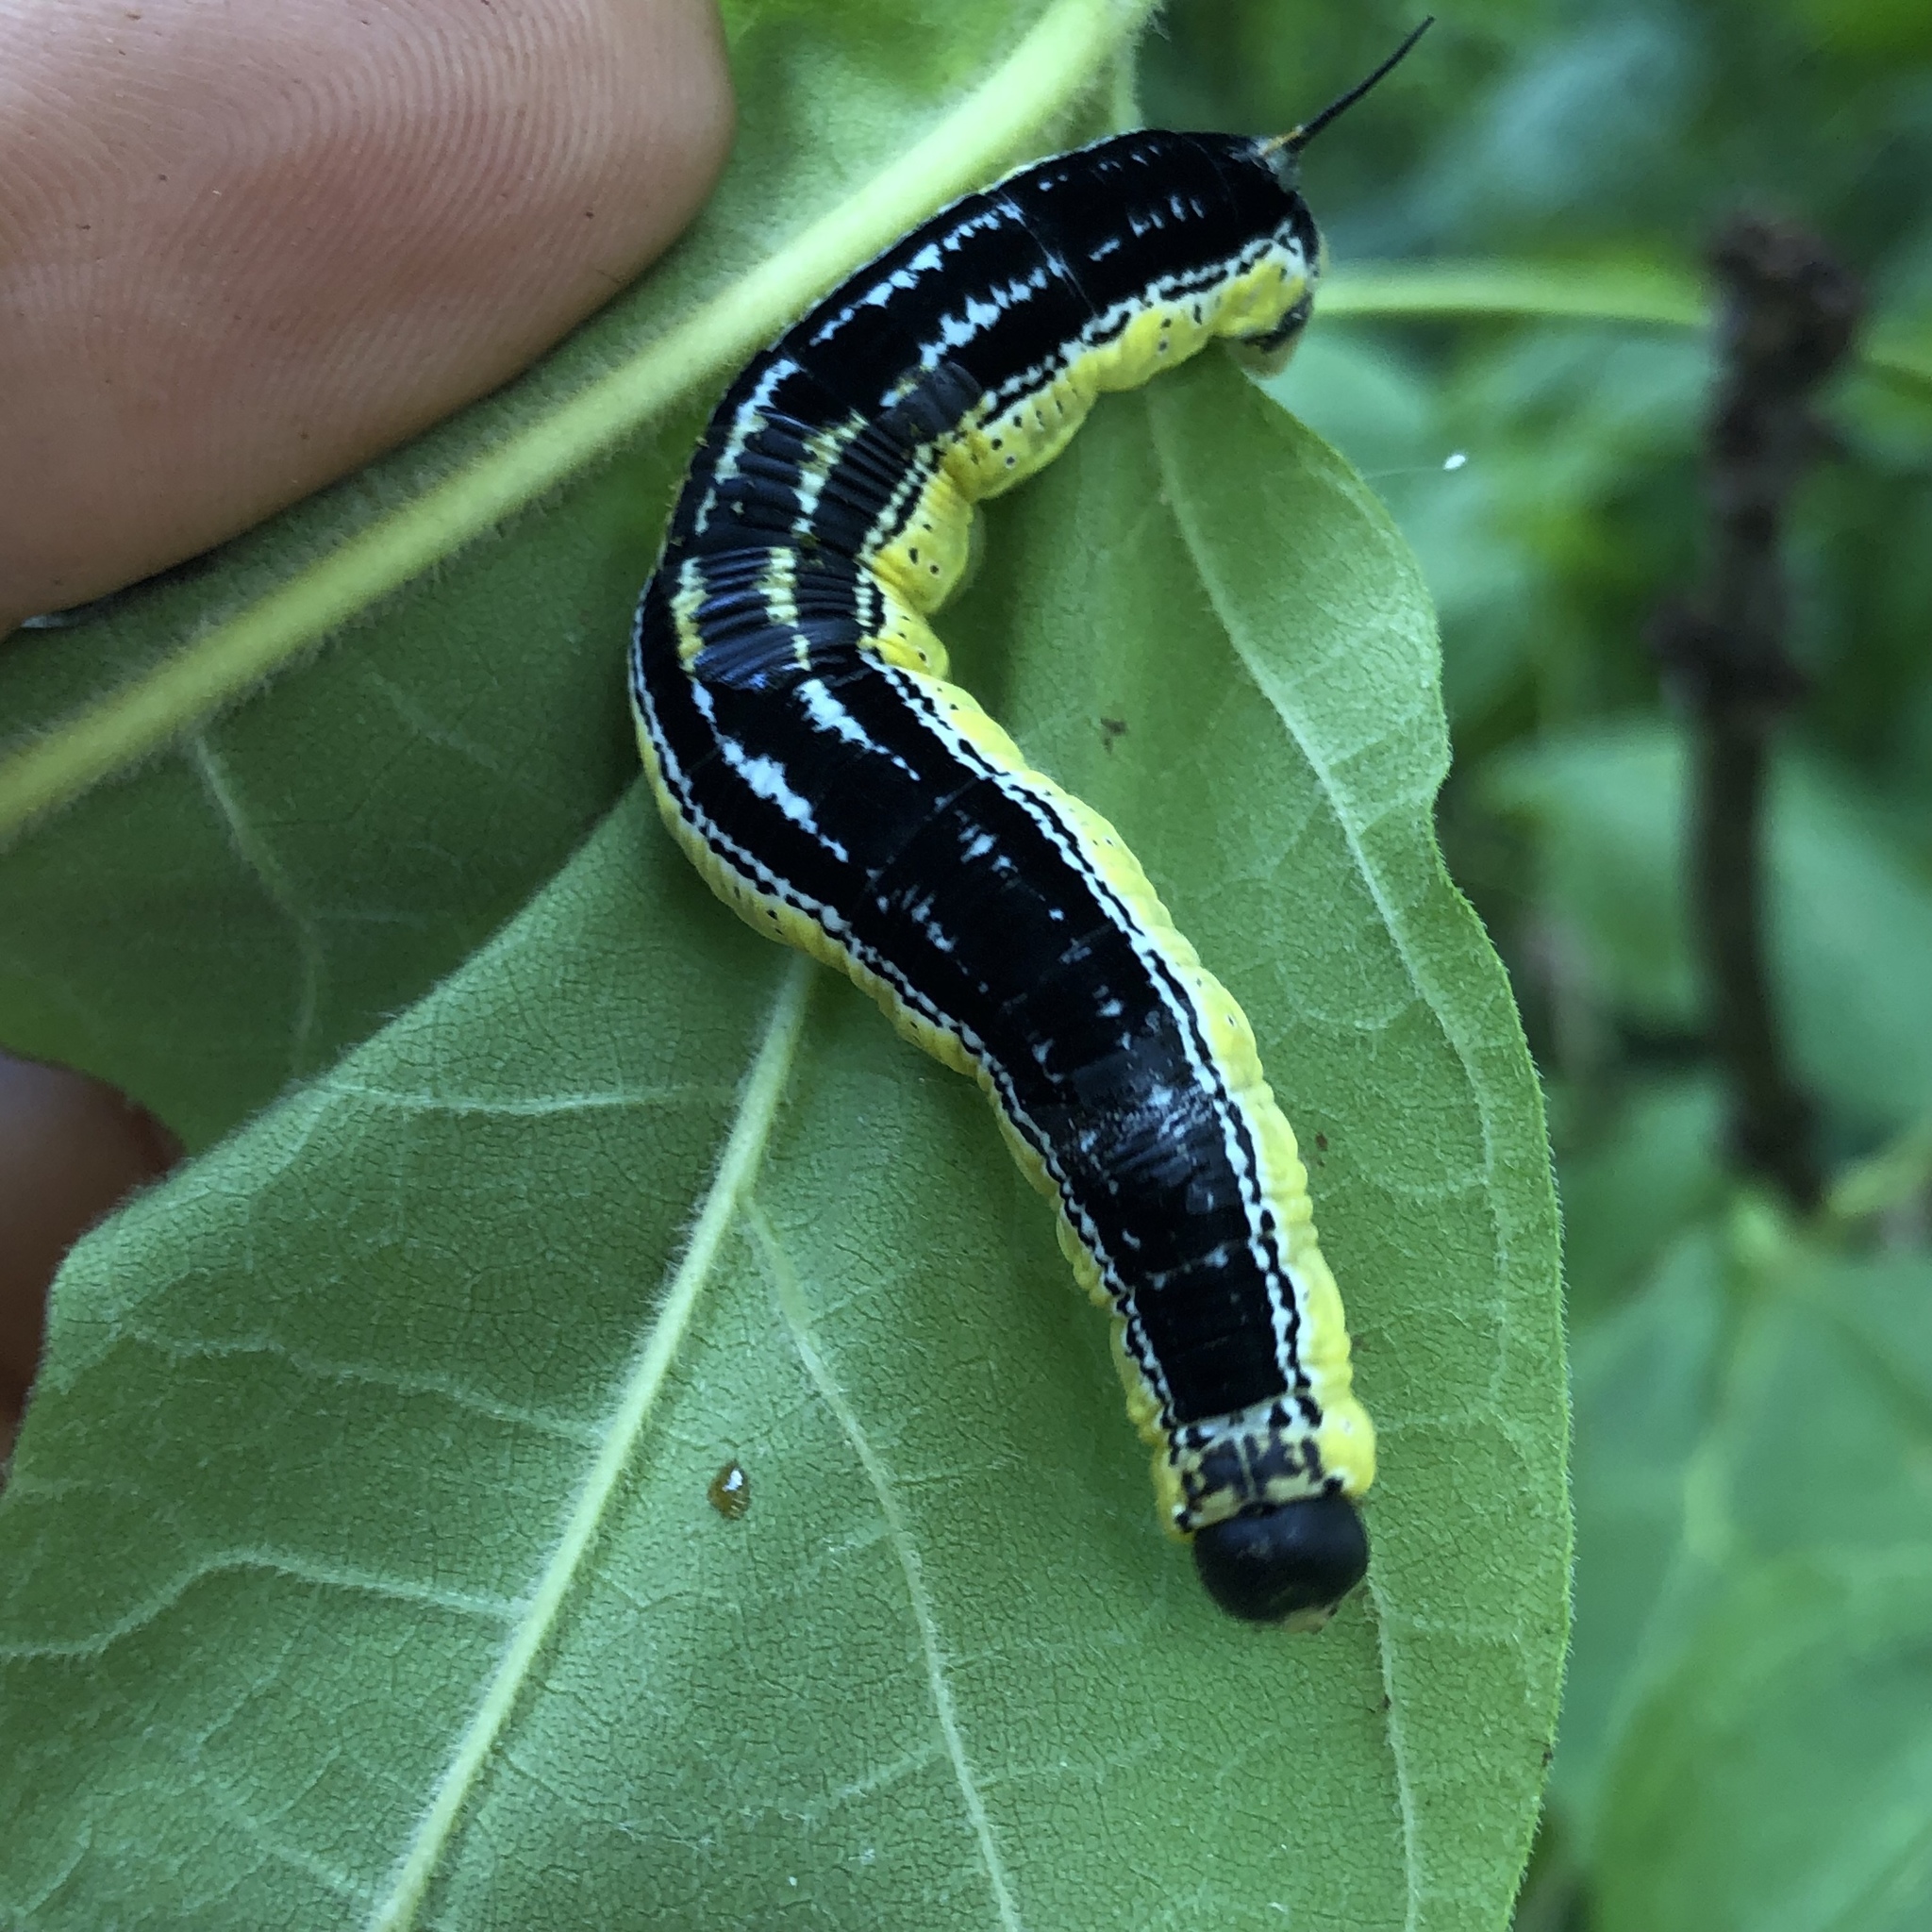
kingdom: Animalia
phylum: Arthropoda
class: Insecta
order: Lepidoptera
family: Sphingidae
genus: Ceratomia
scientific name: Ceratomia catalpae
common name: Catalpa hornworm
